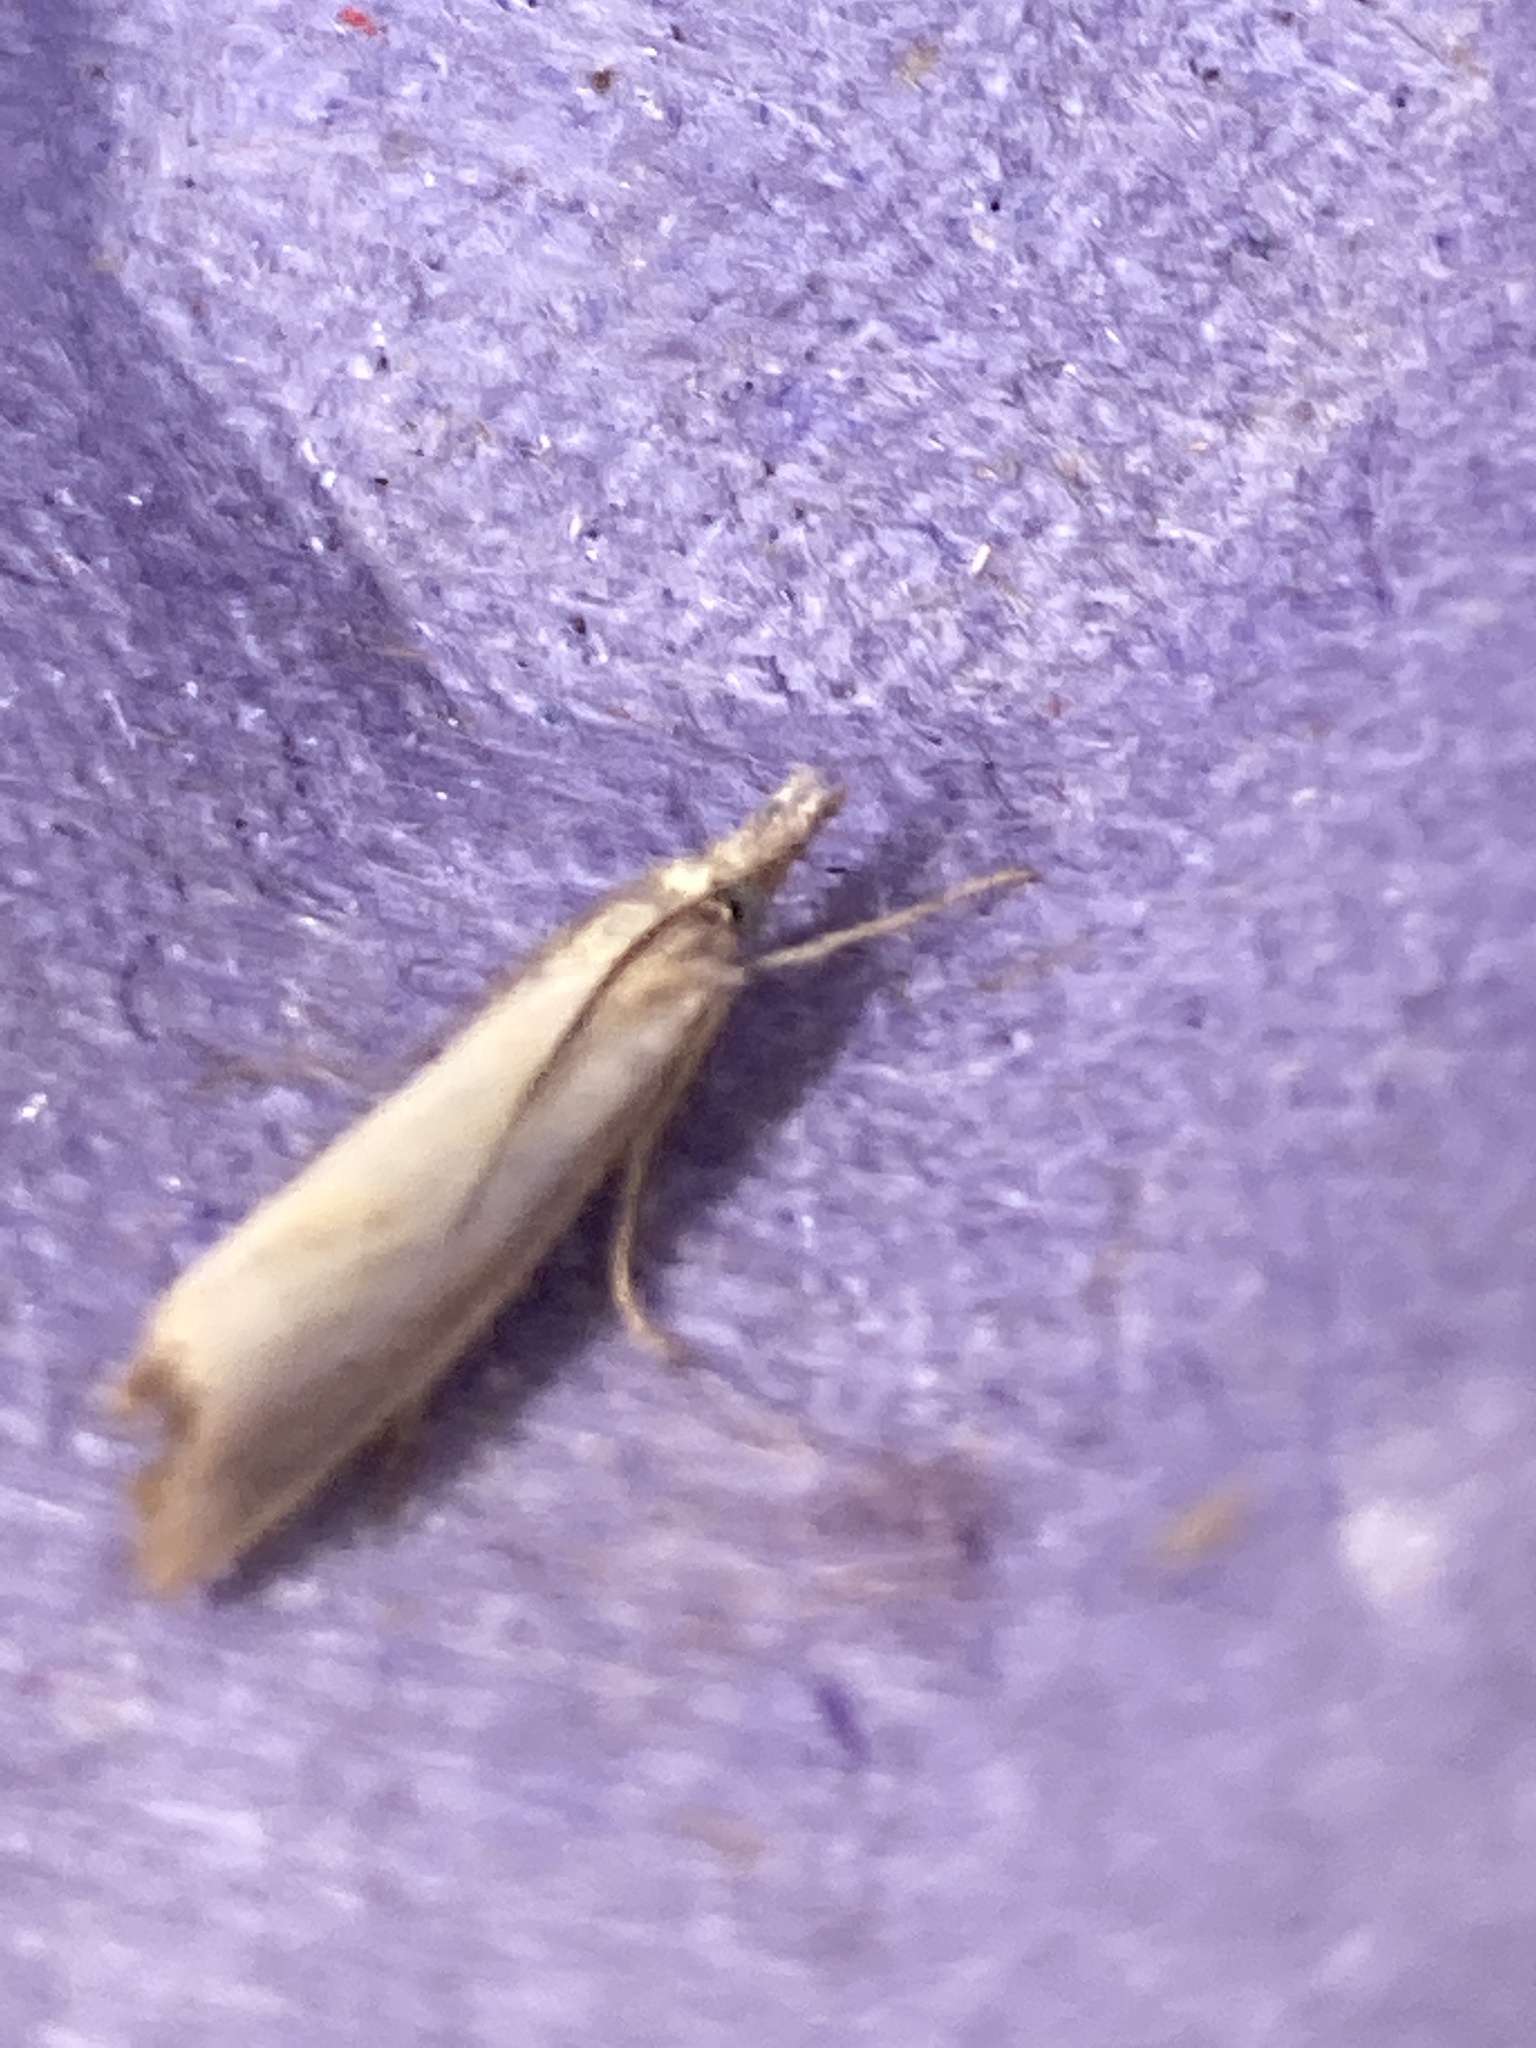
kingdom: Animalia
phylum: Arthropoda
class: Insecta
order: Lepidoptera
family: Crambidae
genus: Agriphila
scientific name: Agriphila straminella
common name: Straw grass-veneer
